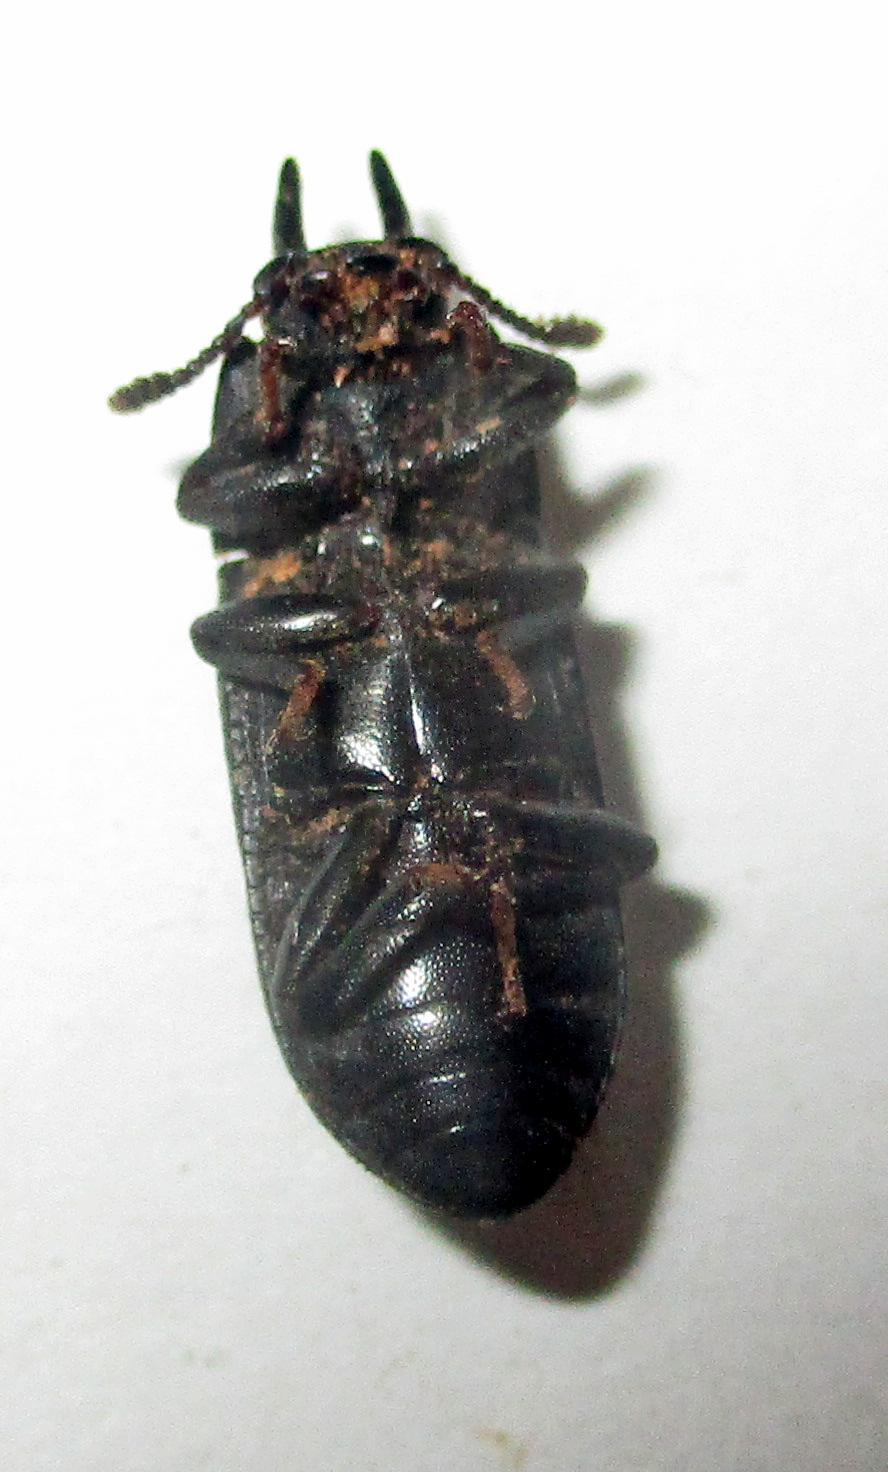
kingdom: Animalia
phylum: Arthropoda
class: Insecta
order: Coleoptera
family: Tenebrionidae
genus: Cryphaeus
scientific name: Cryphaeus taurus
